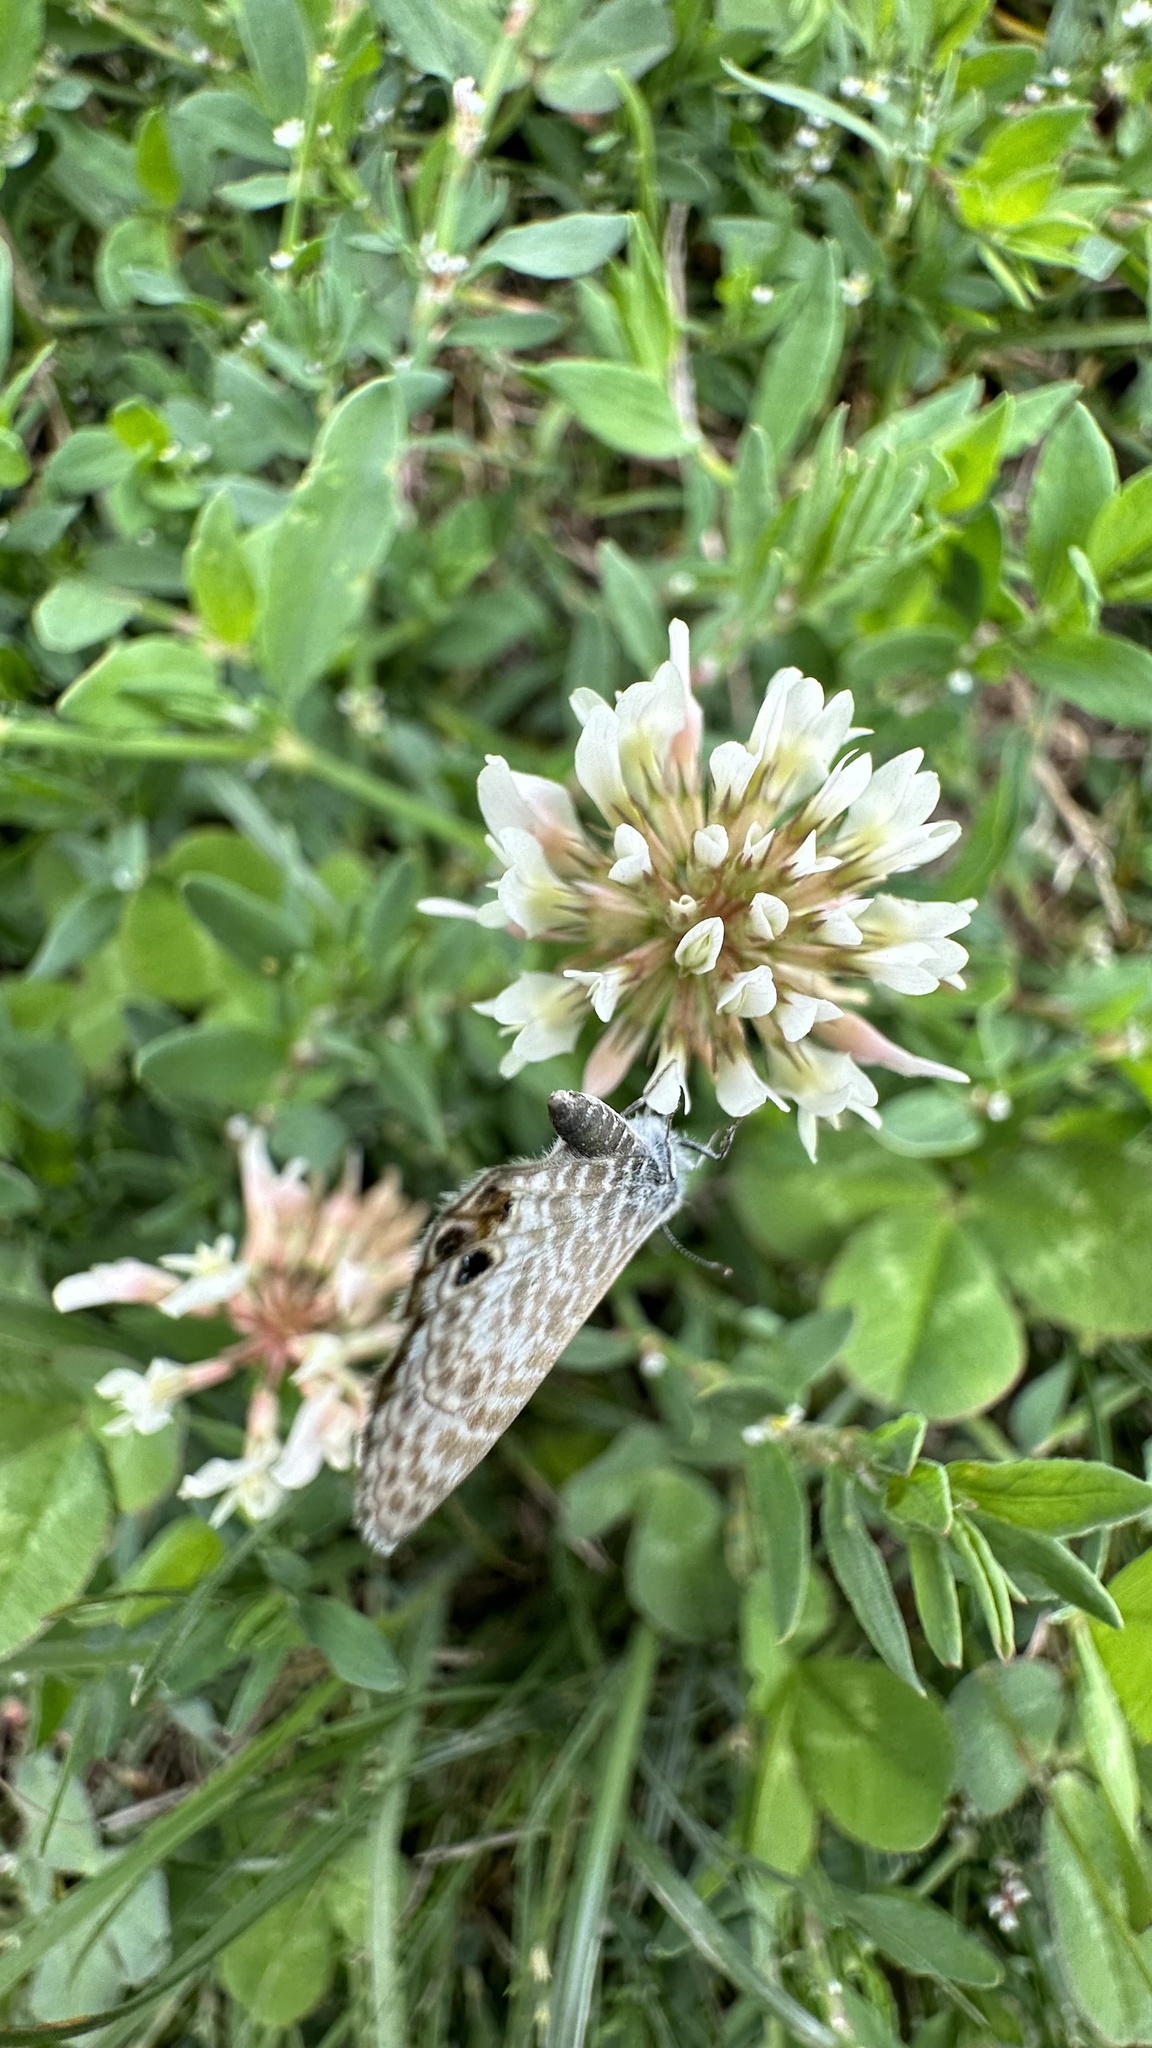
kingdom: Animalia
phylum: Arthropoda
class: Insecta
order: Lepidoptera
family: Lycaenidae
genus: Leptotes
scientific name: Leptotes marina
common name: Marine blue
